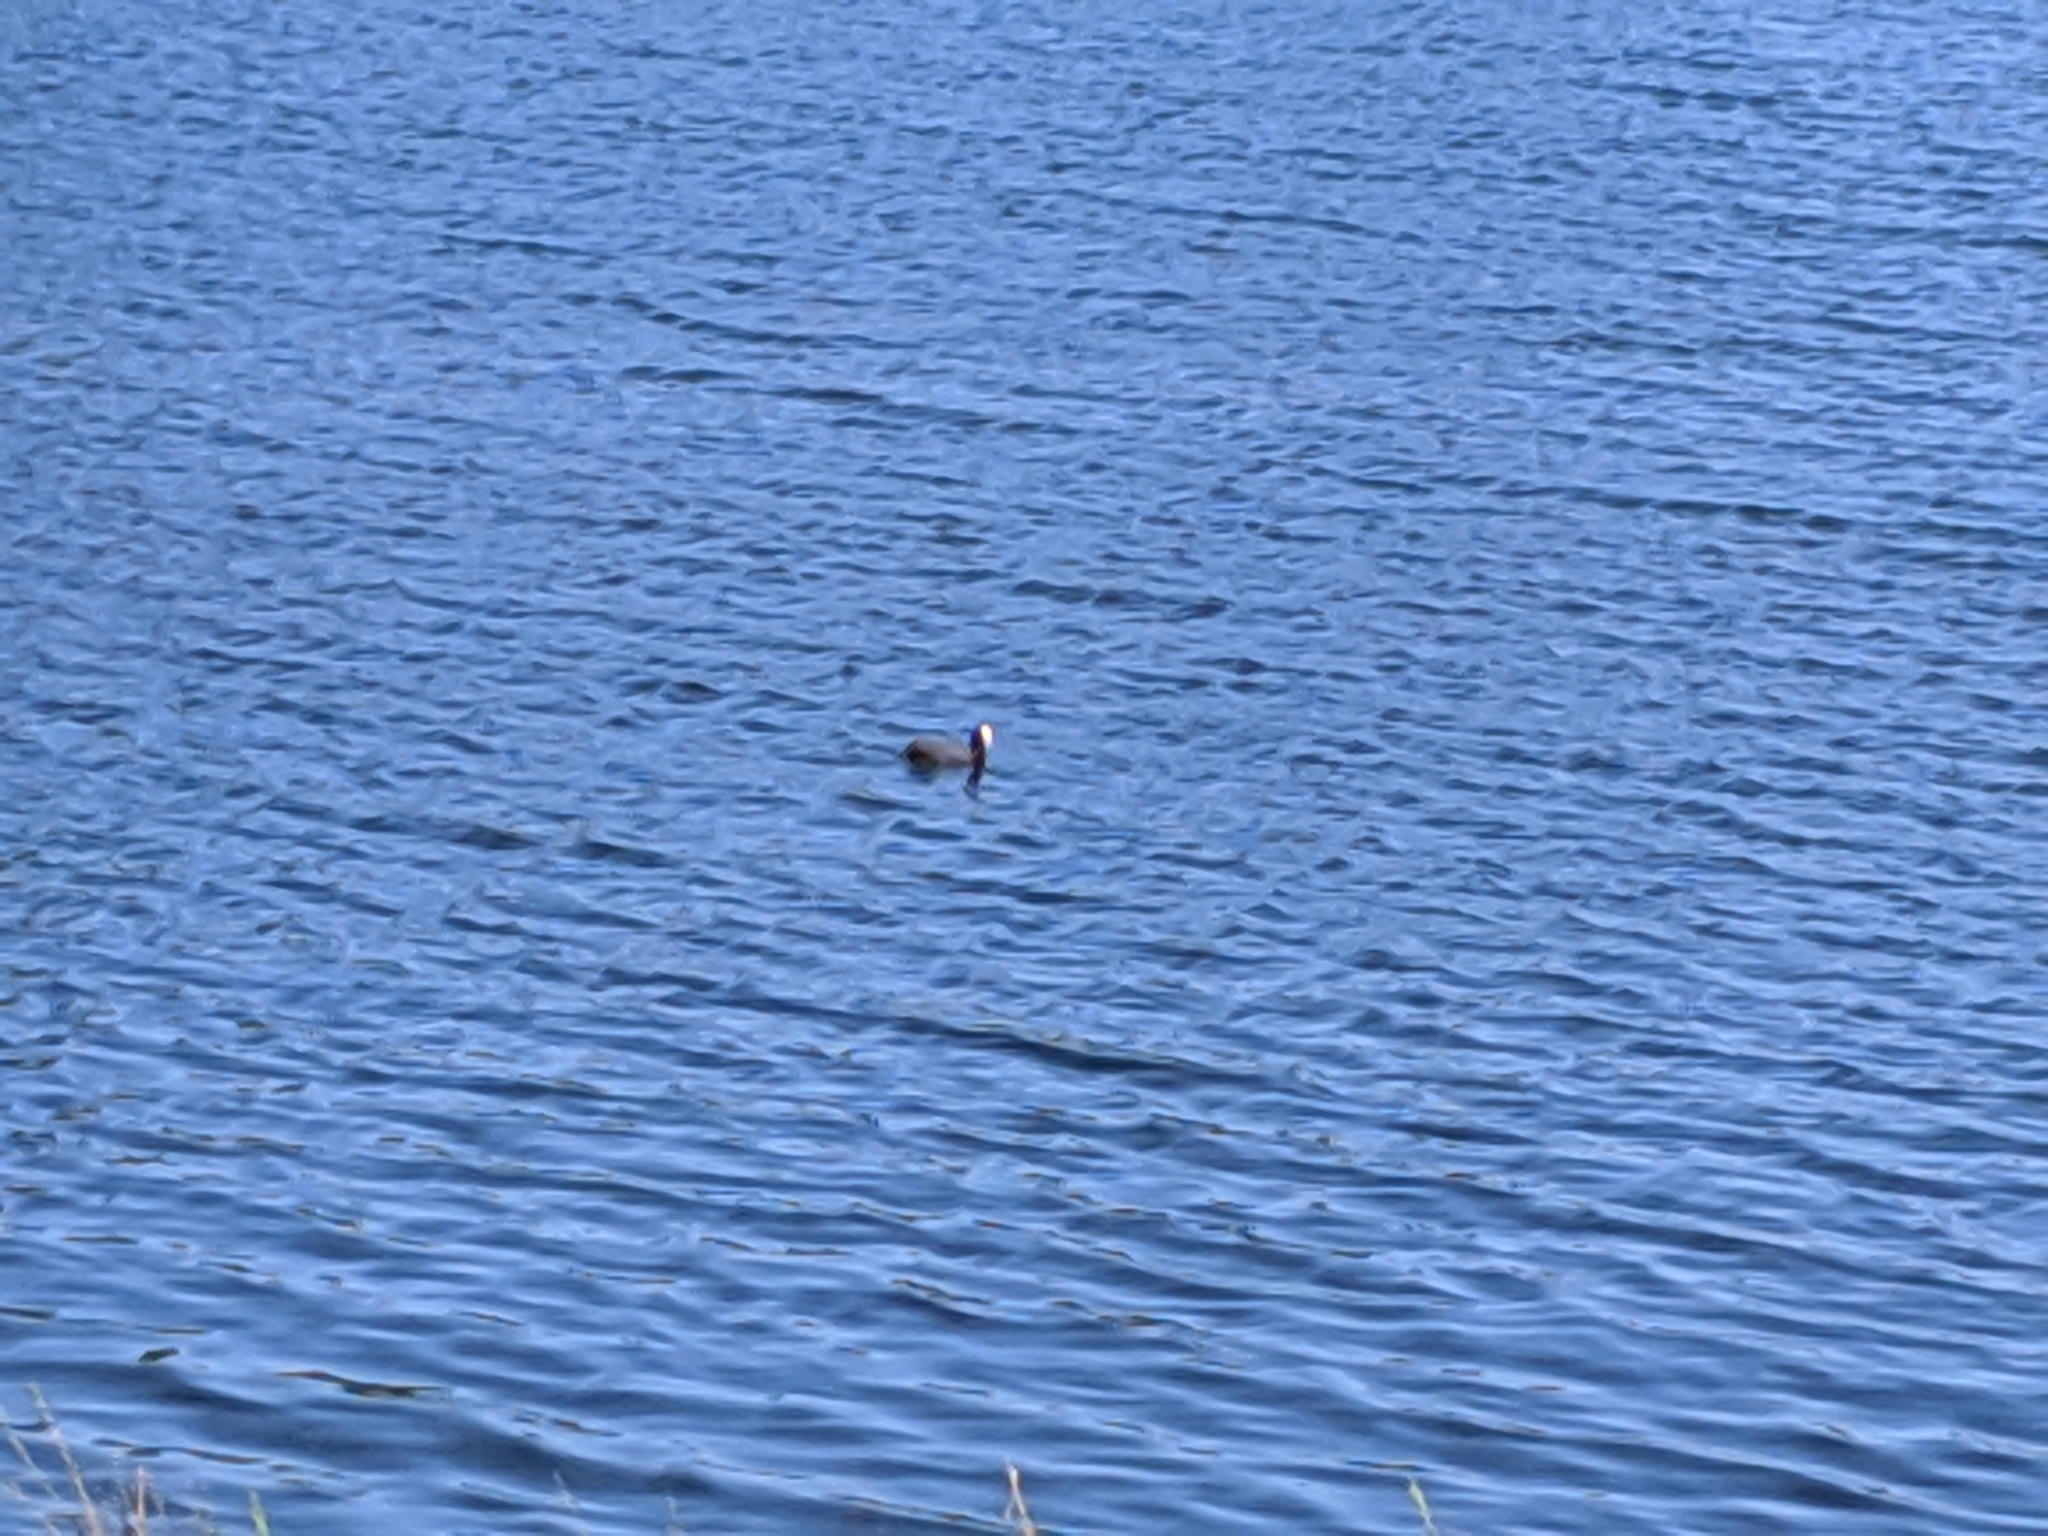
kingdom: Animalia
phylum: Chordata
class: Aves
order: Gruiformes
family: Rallidae
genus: Fulica
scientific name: Fulica atra
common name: Eurasian coot
